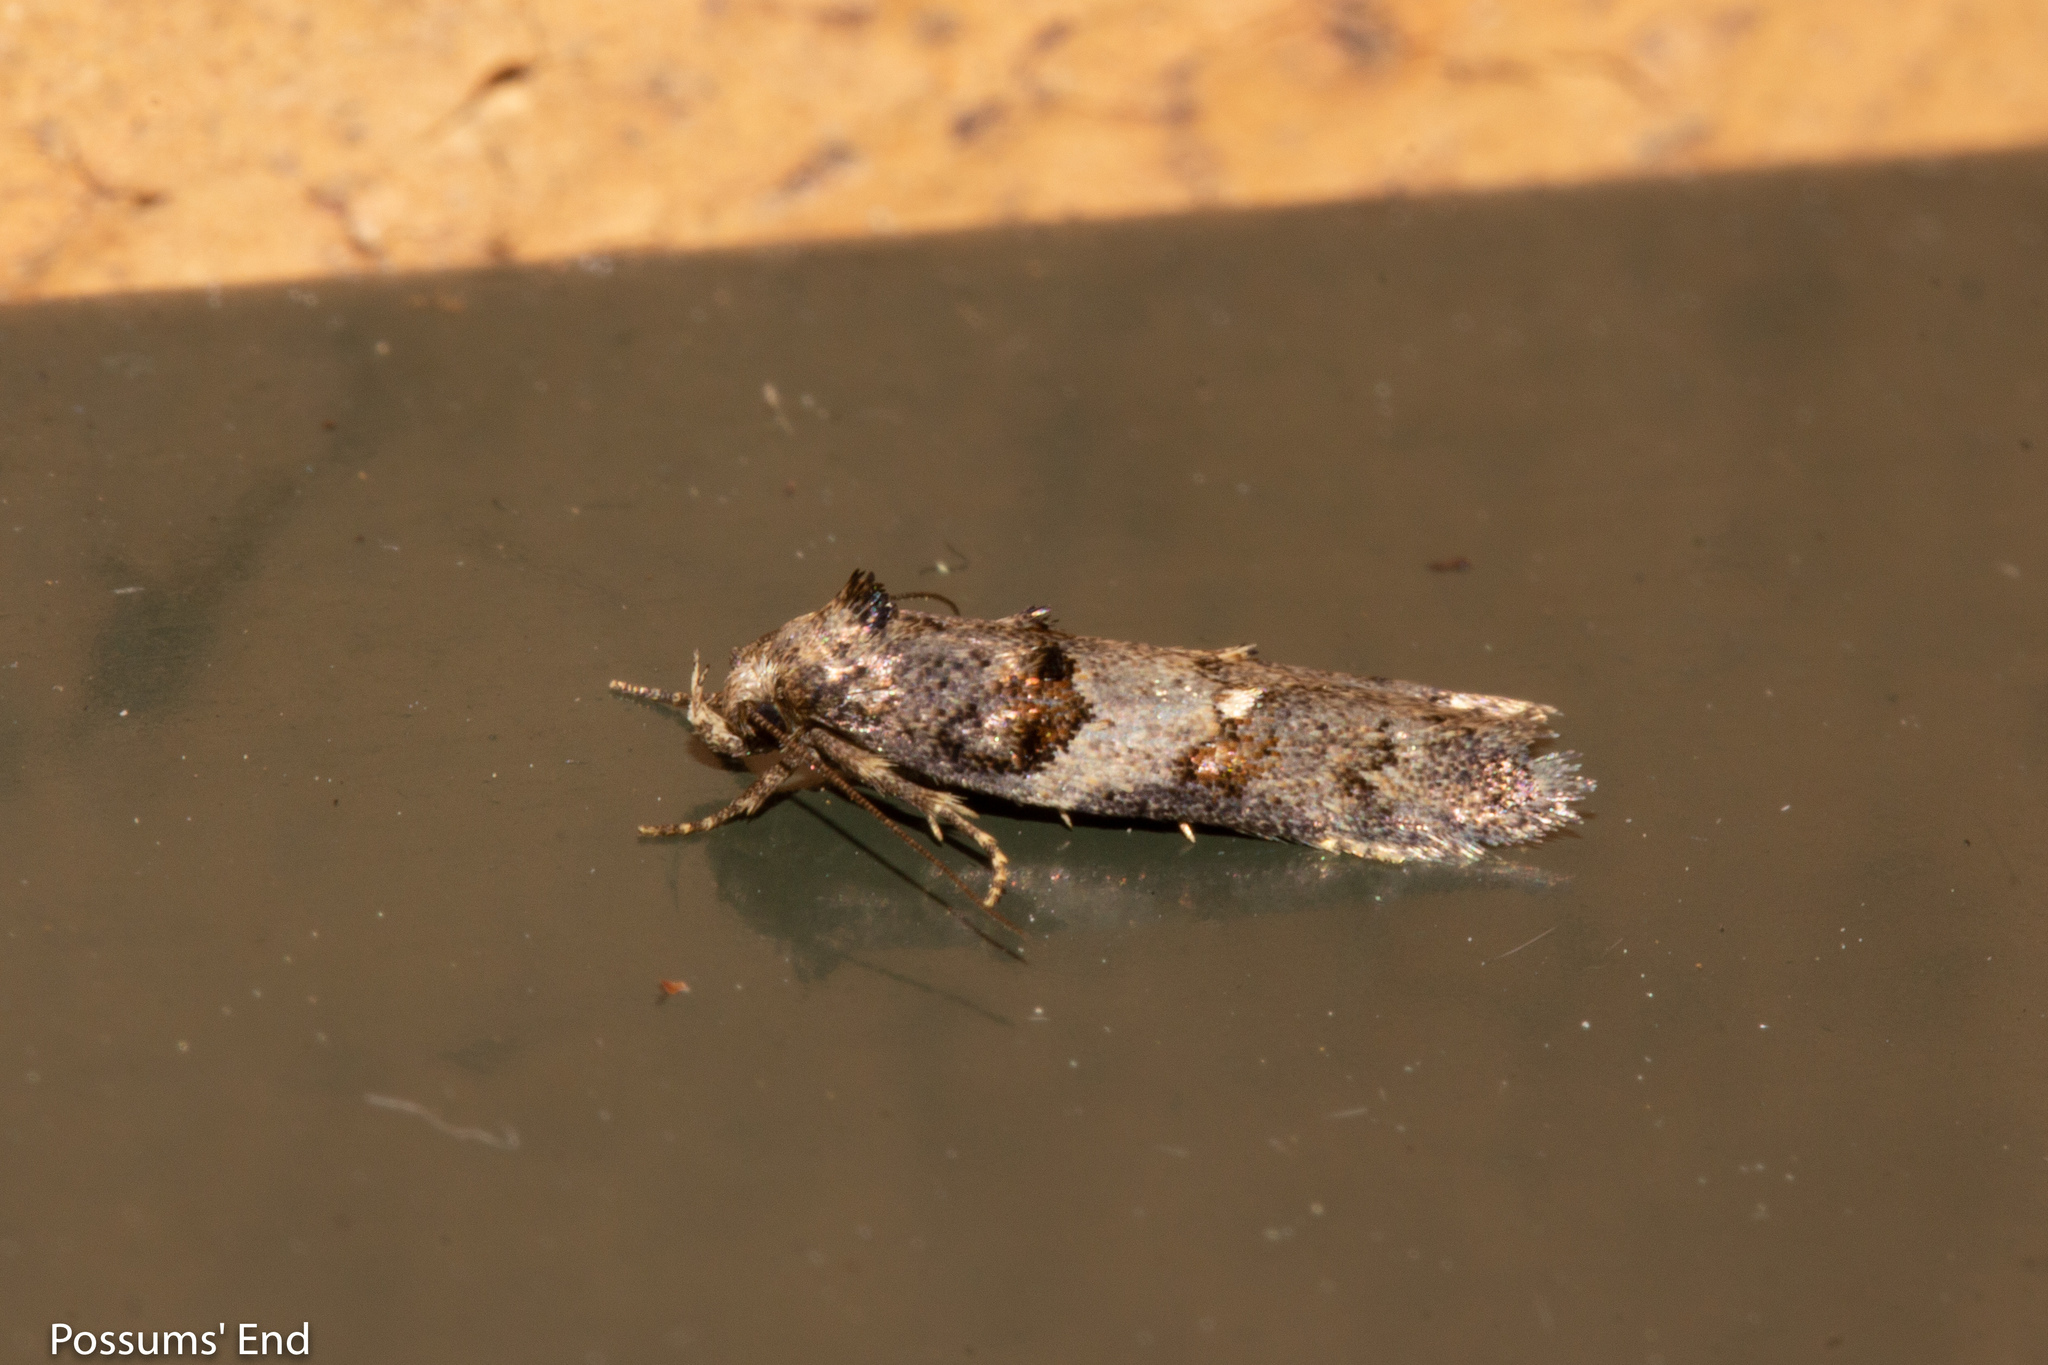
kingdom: Animalia
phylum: Arthropoda
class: Insecta
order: Lepidoptera
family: Oecophoridae
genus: Trachypepla
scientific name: Trachypepla contritella
